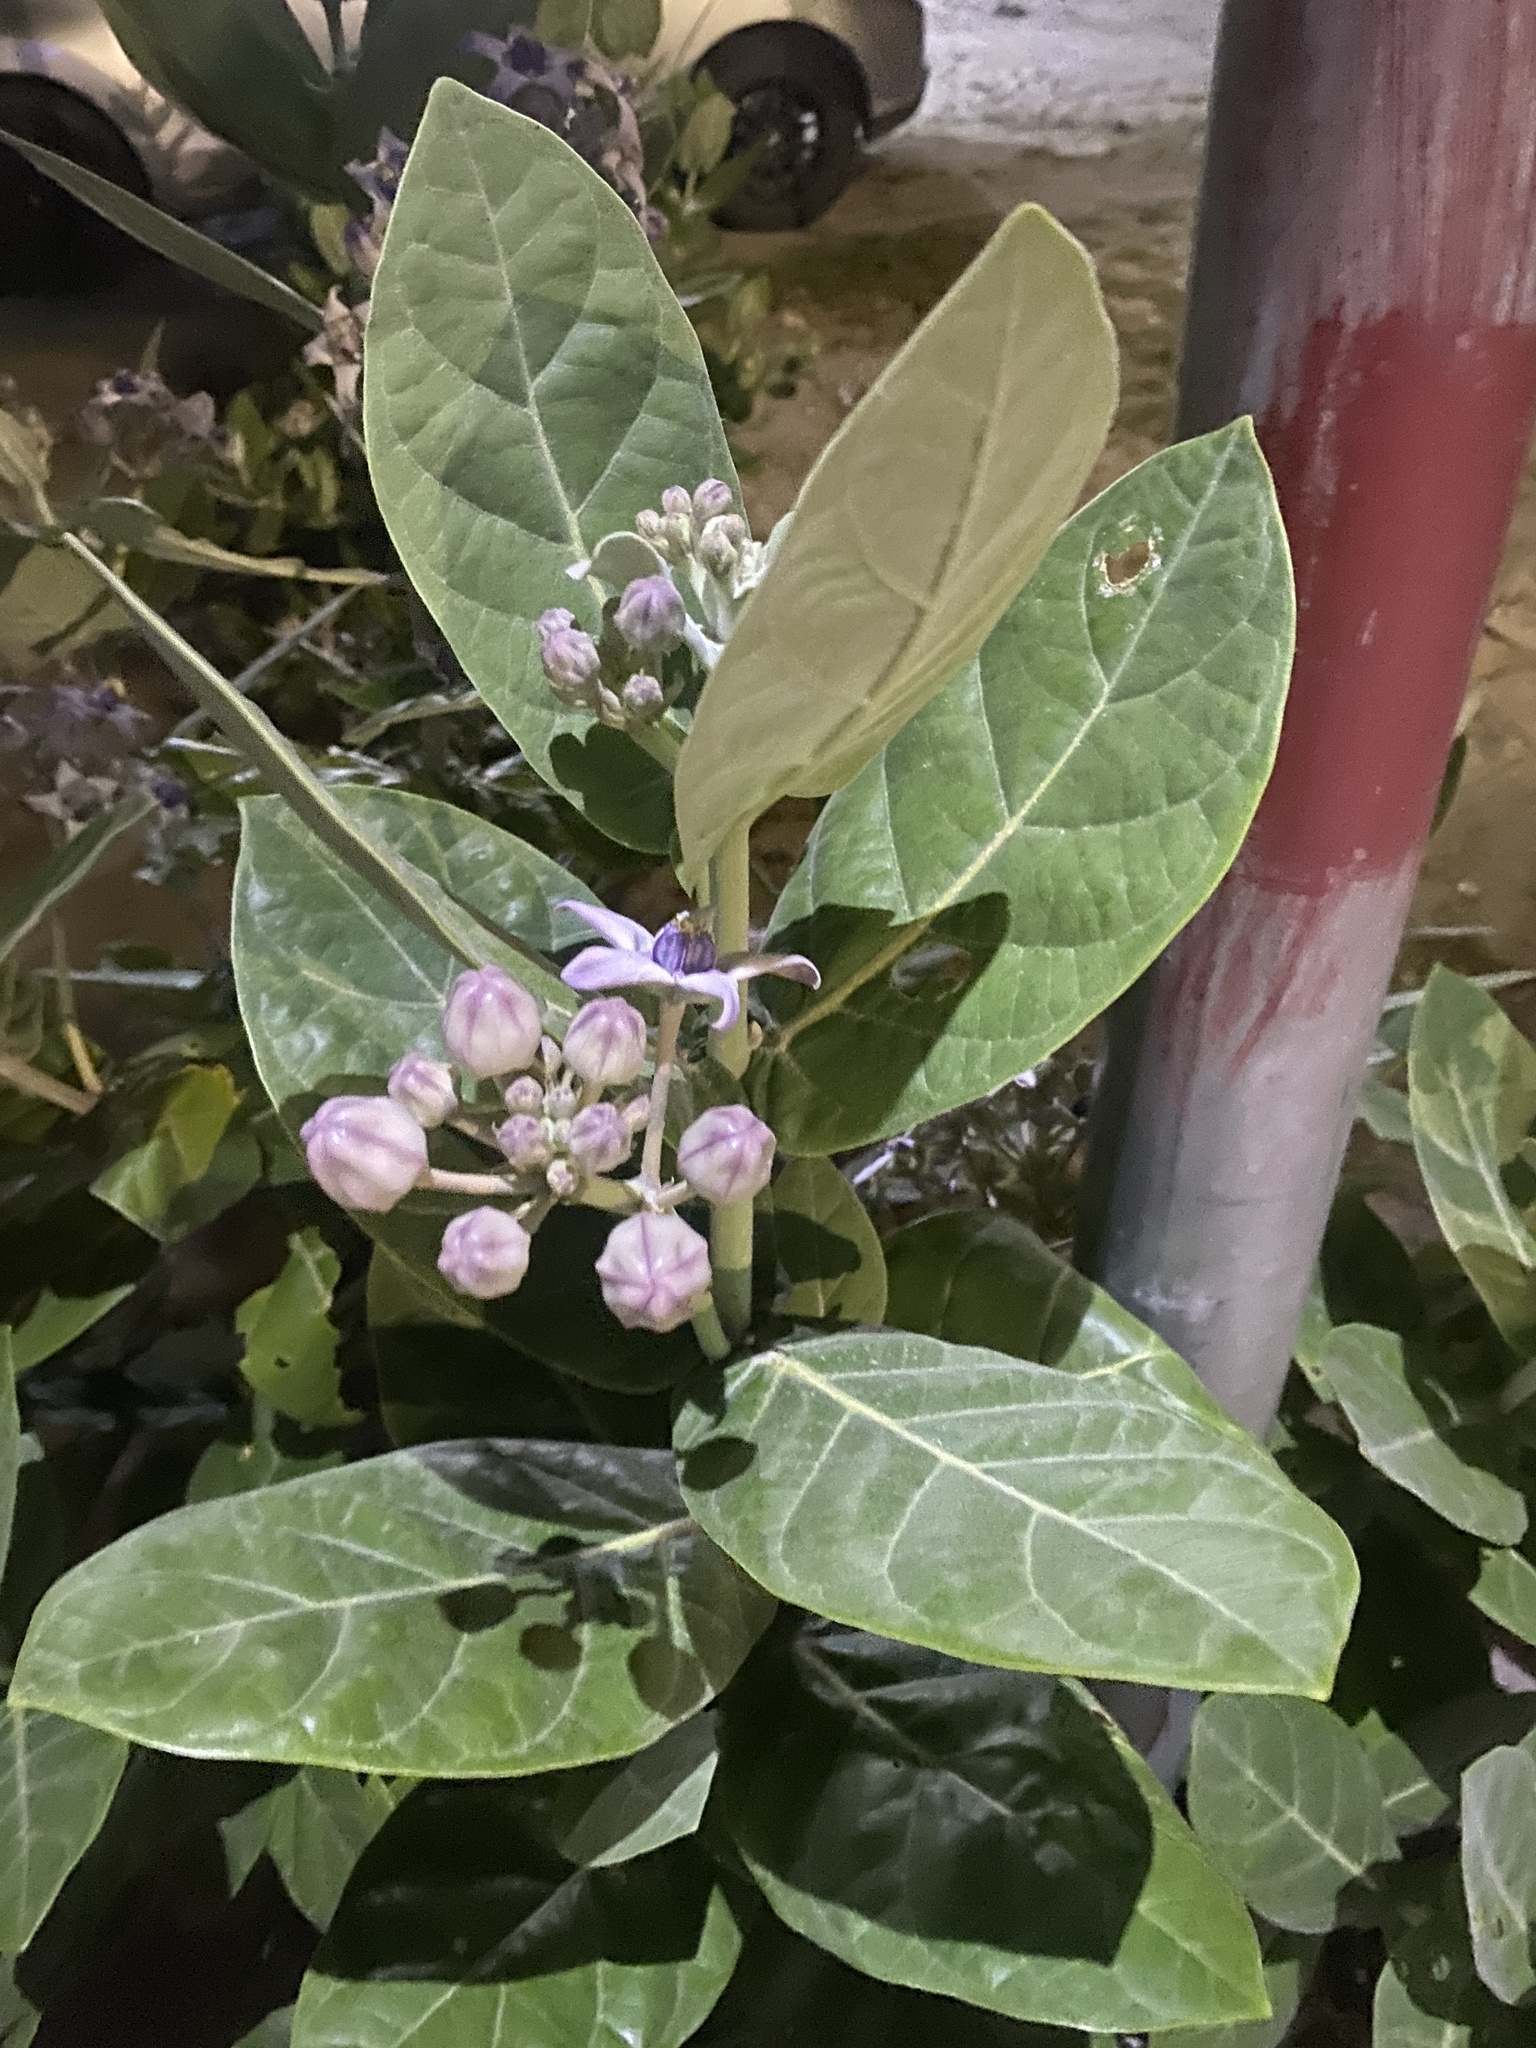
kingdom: Plantae
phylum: Tracheophyta
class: Magnoliopsida
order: Gentianales
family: Apocynaceae
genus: Calotropis
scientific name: Calotropis gigantea
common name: Crown flower
